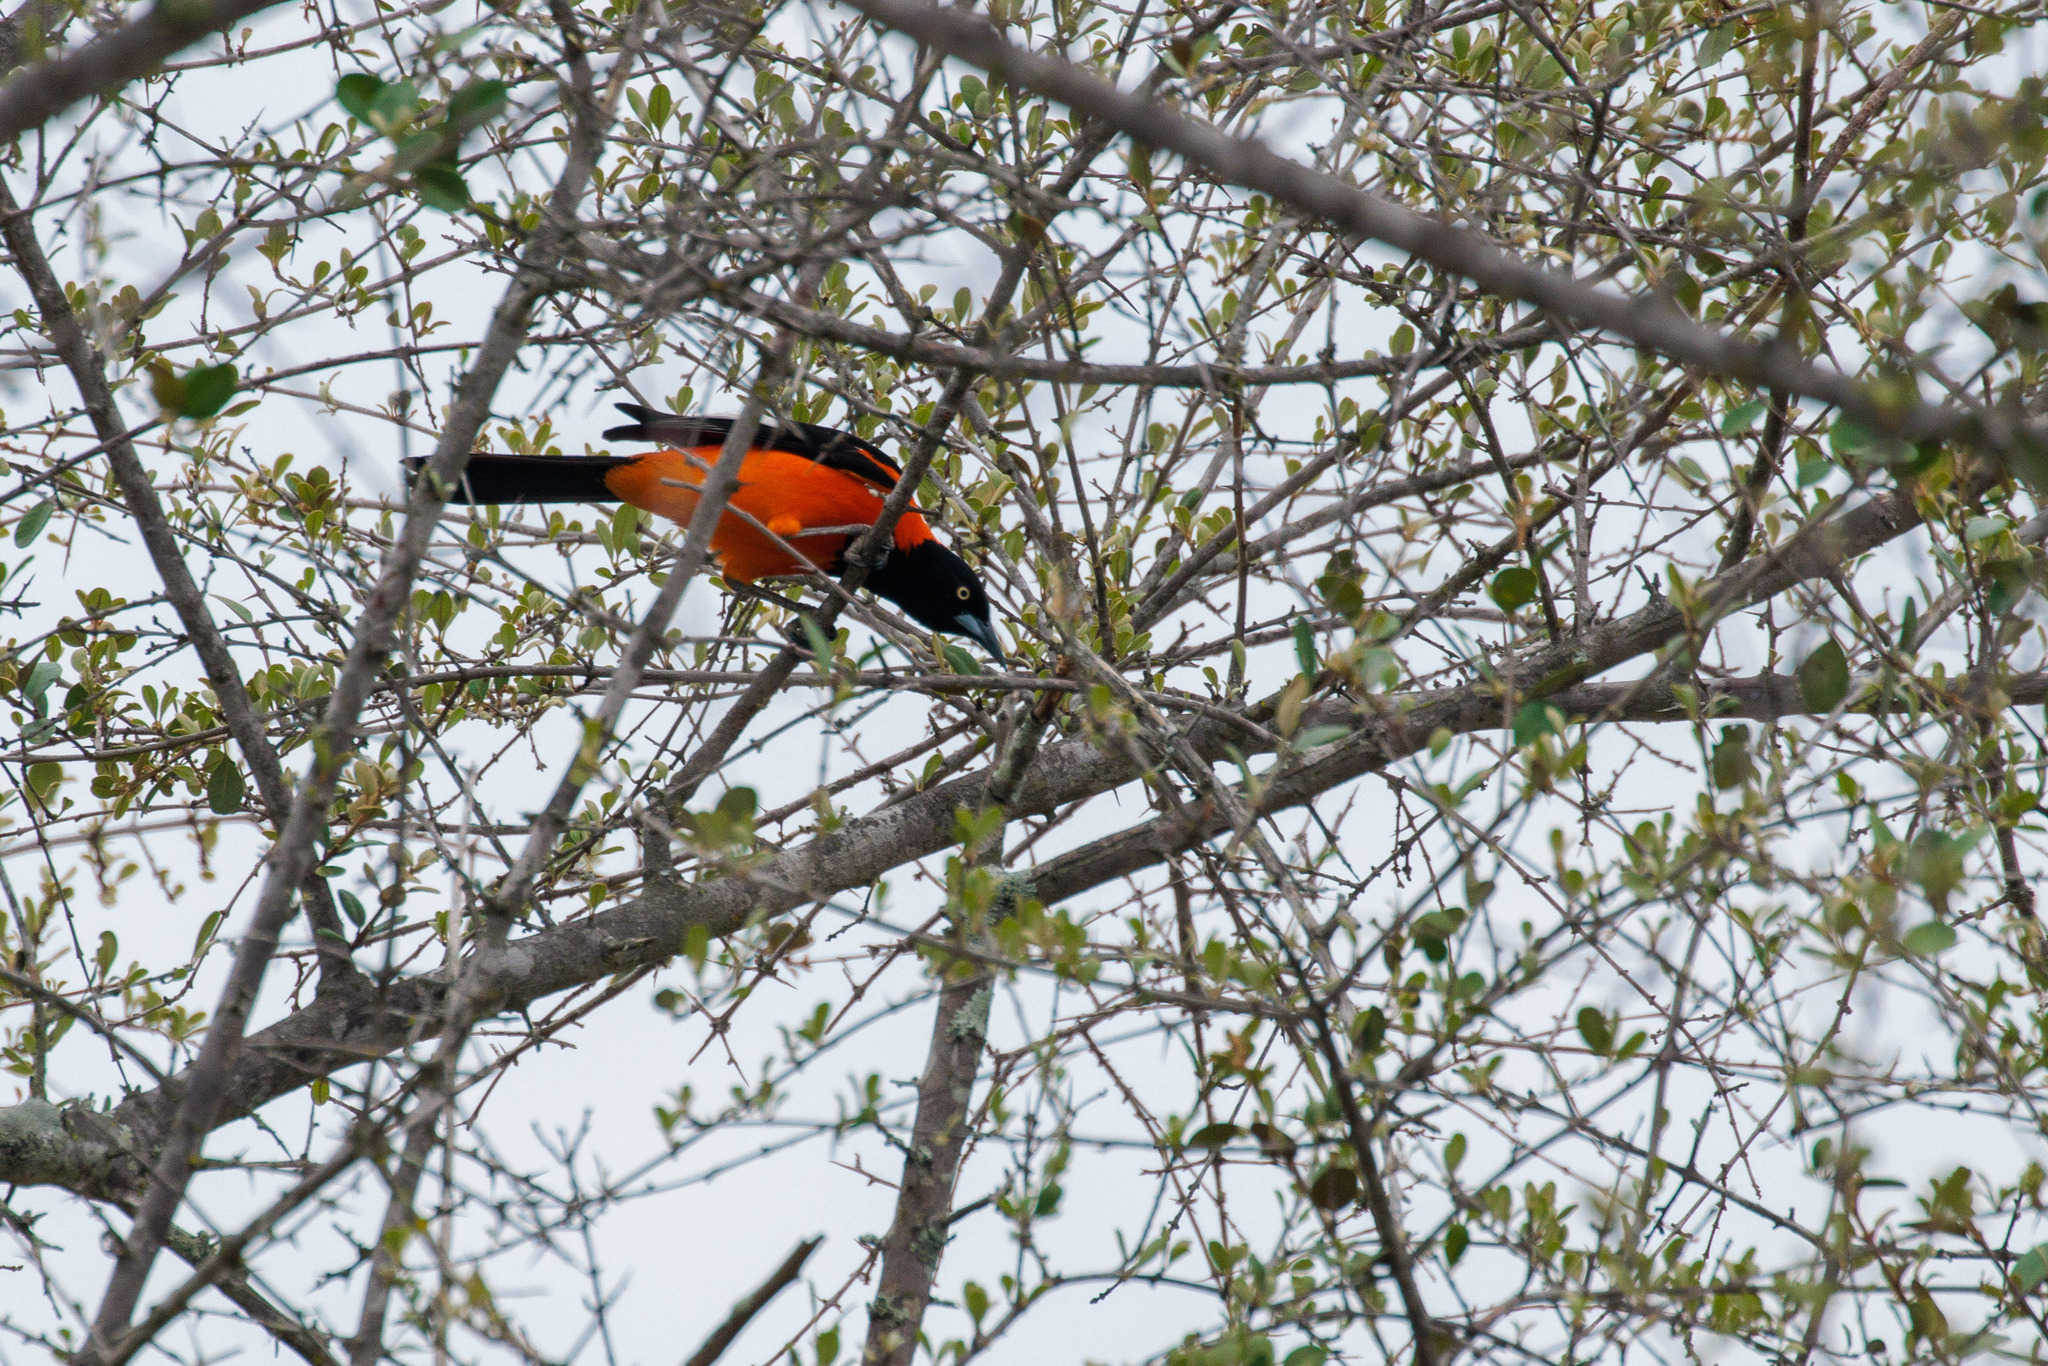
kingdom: Animalia
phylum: Chordata
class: Aves
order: Passeriformes
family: Icteridae
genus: Icterus
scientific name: Icterus icterus
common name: Venezuelan troupial
